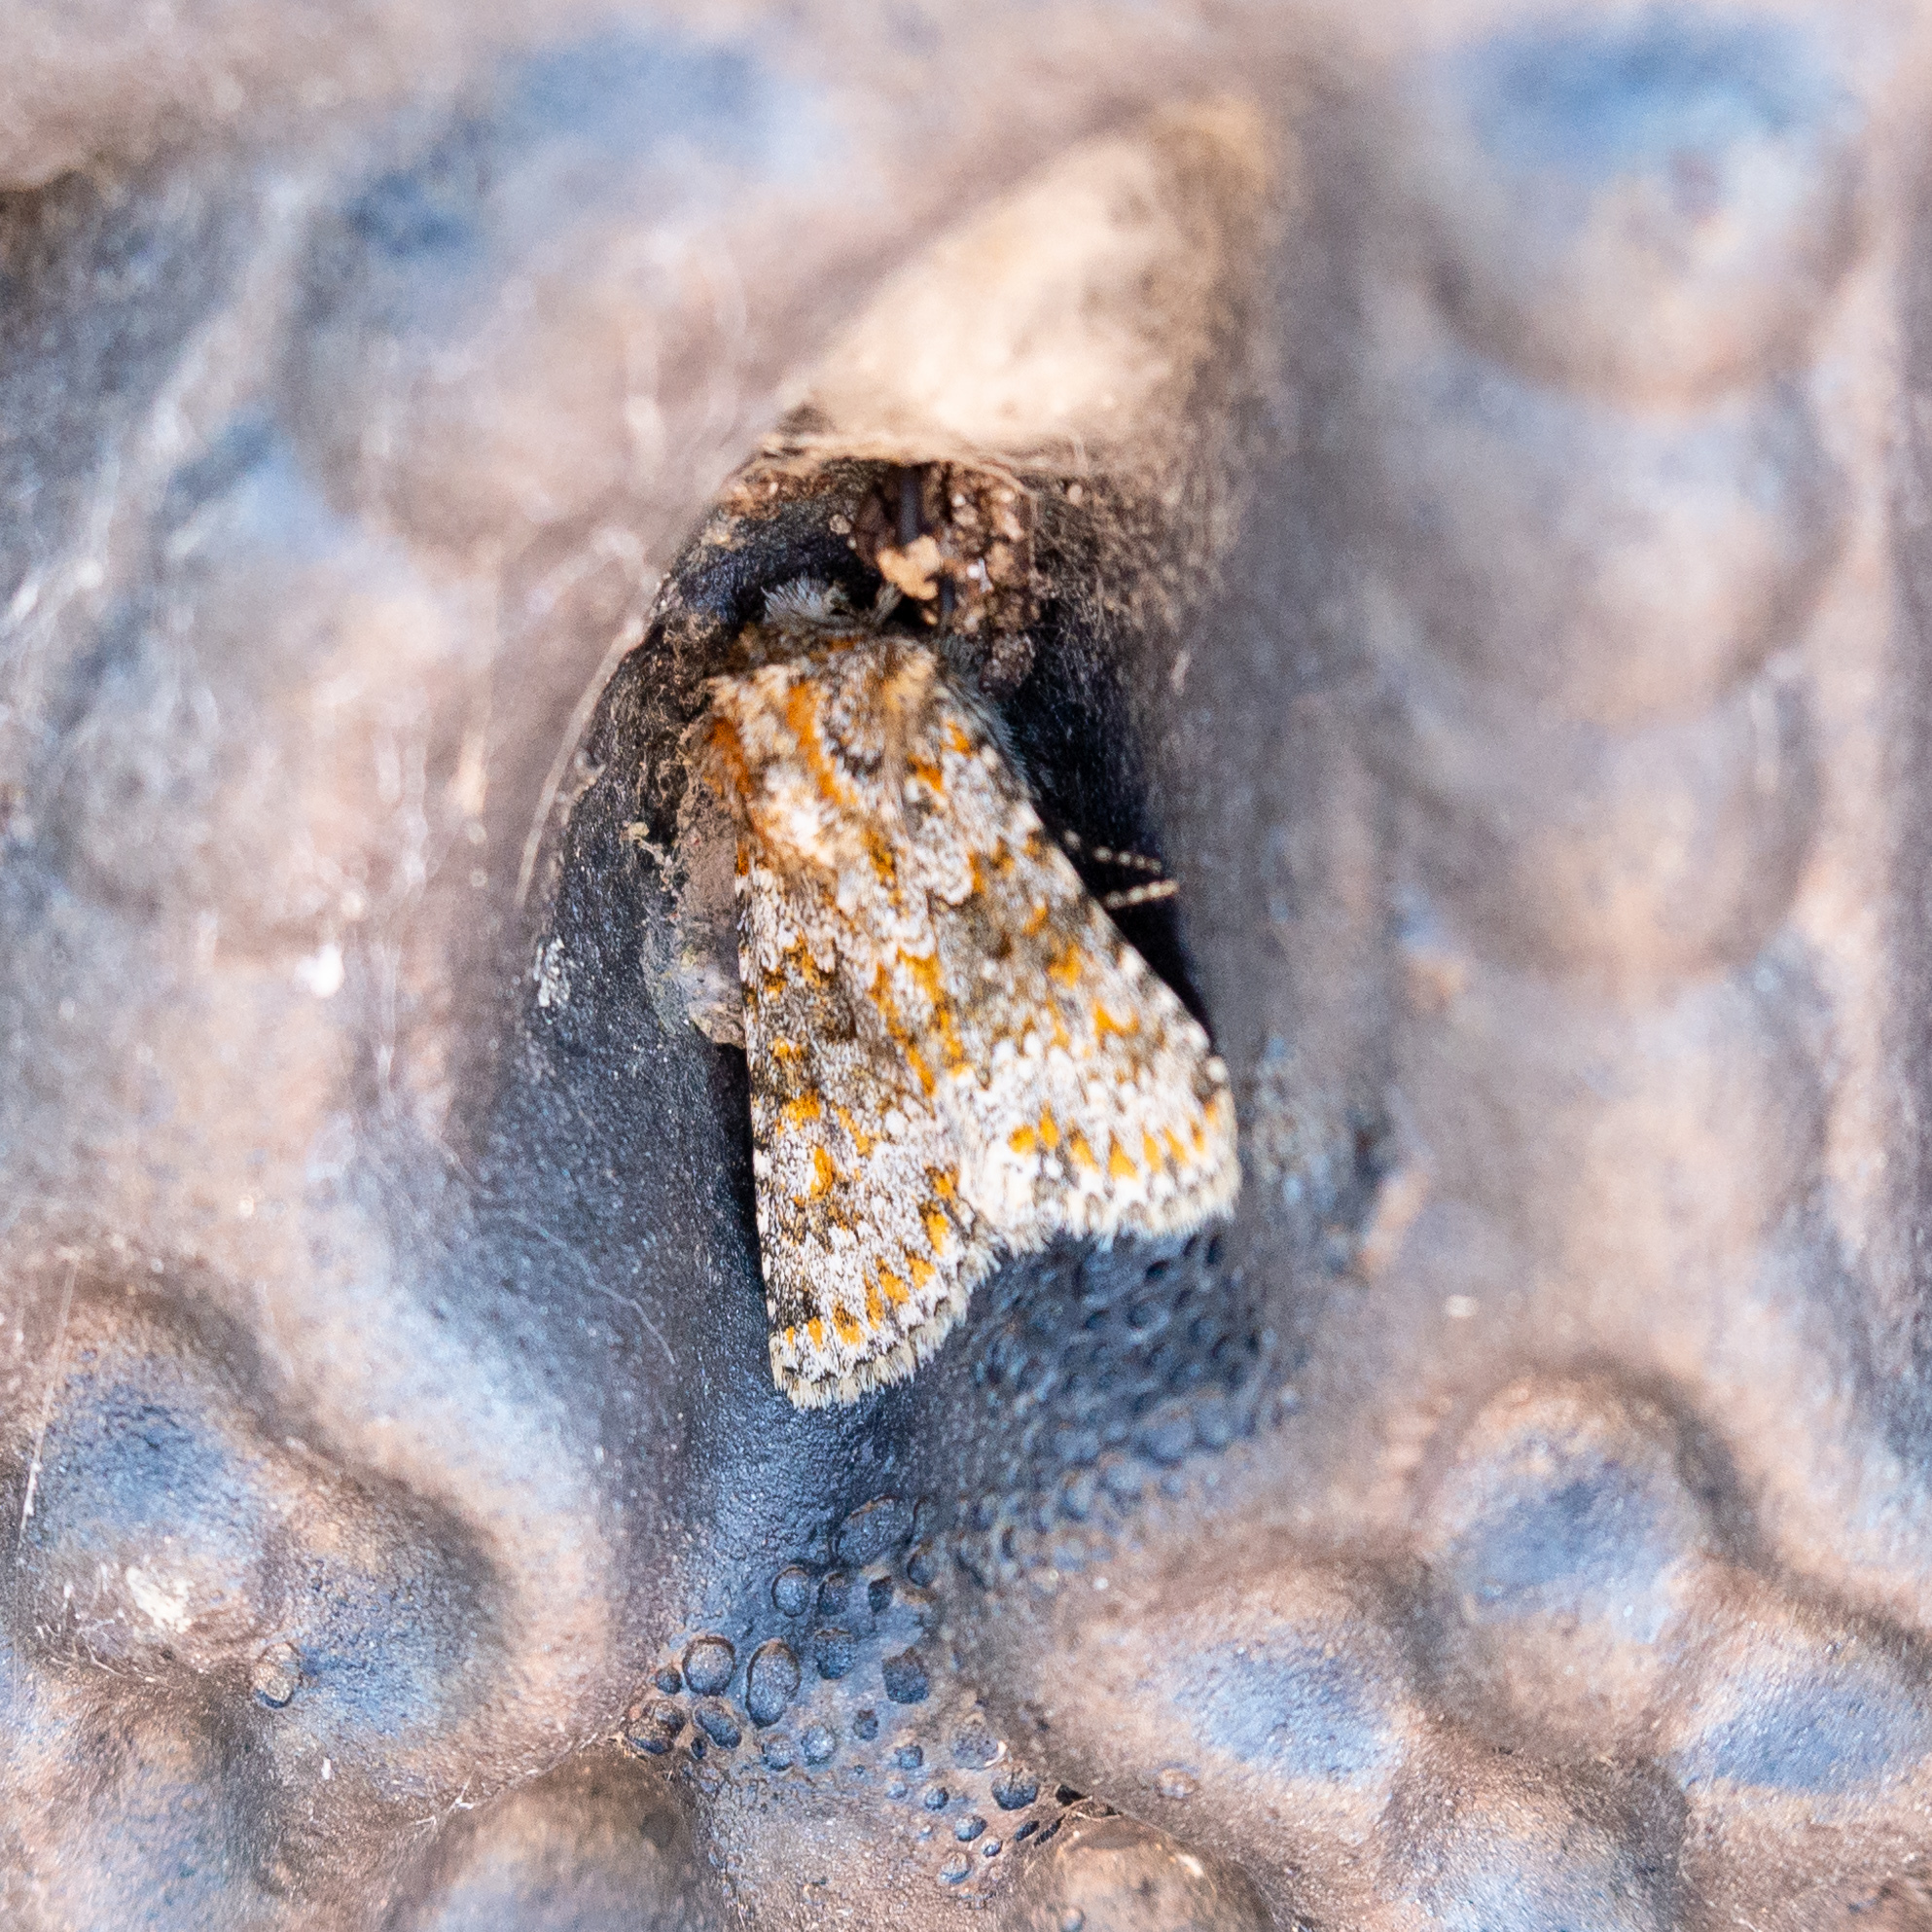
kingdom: Animalia
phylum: Arthropoda
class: Insecta
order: Lepidoptera
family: Noctuidae
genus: Hecatera
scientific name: Hecatera dysodea
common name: Small ranunculus
